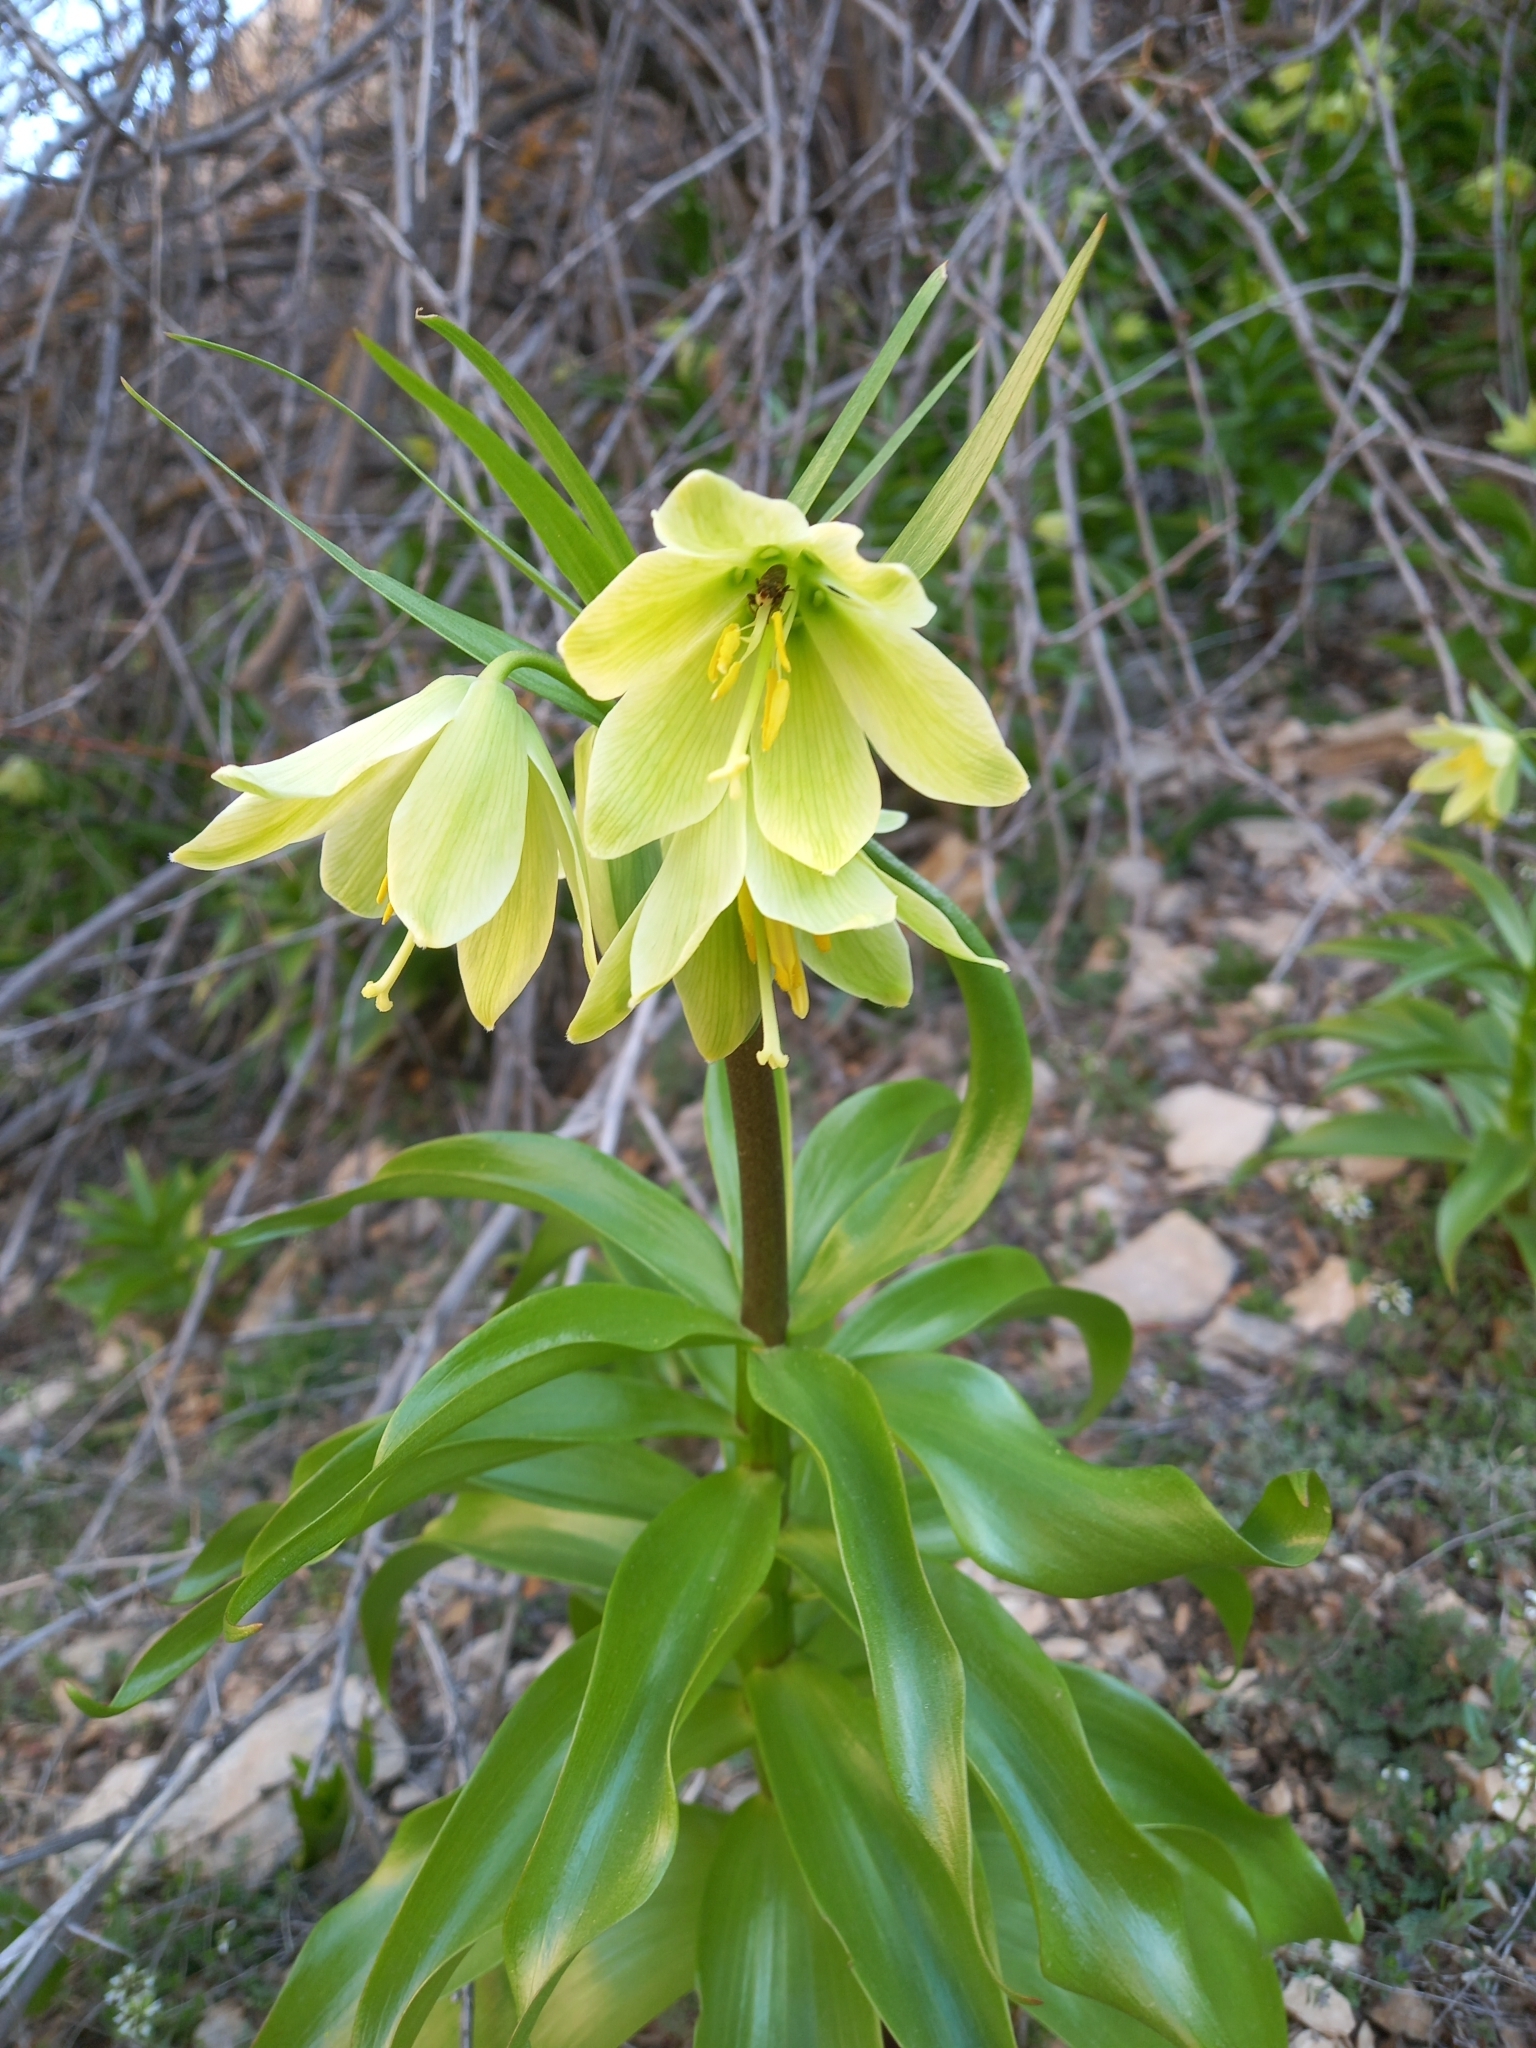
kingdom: Plantae
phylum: Tracheophyta
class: Liliopsida
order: Liliales
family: Liliaceae
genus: Fritillaria
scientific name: Fritillaria raddeana
